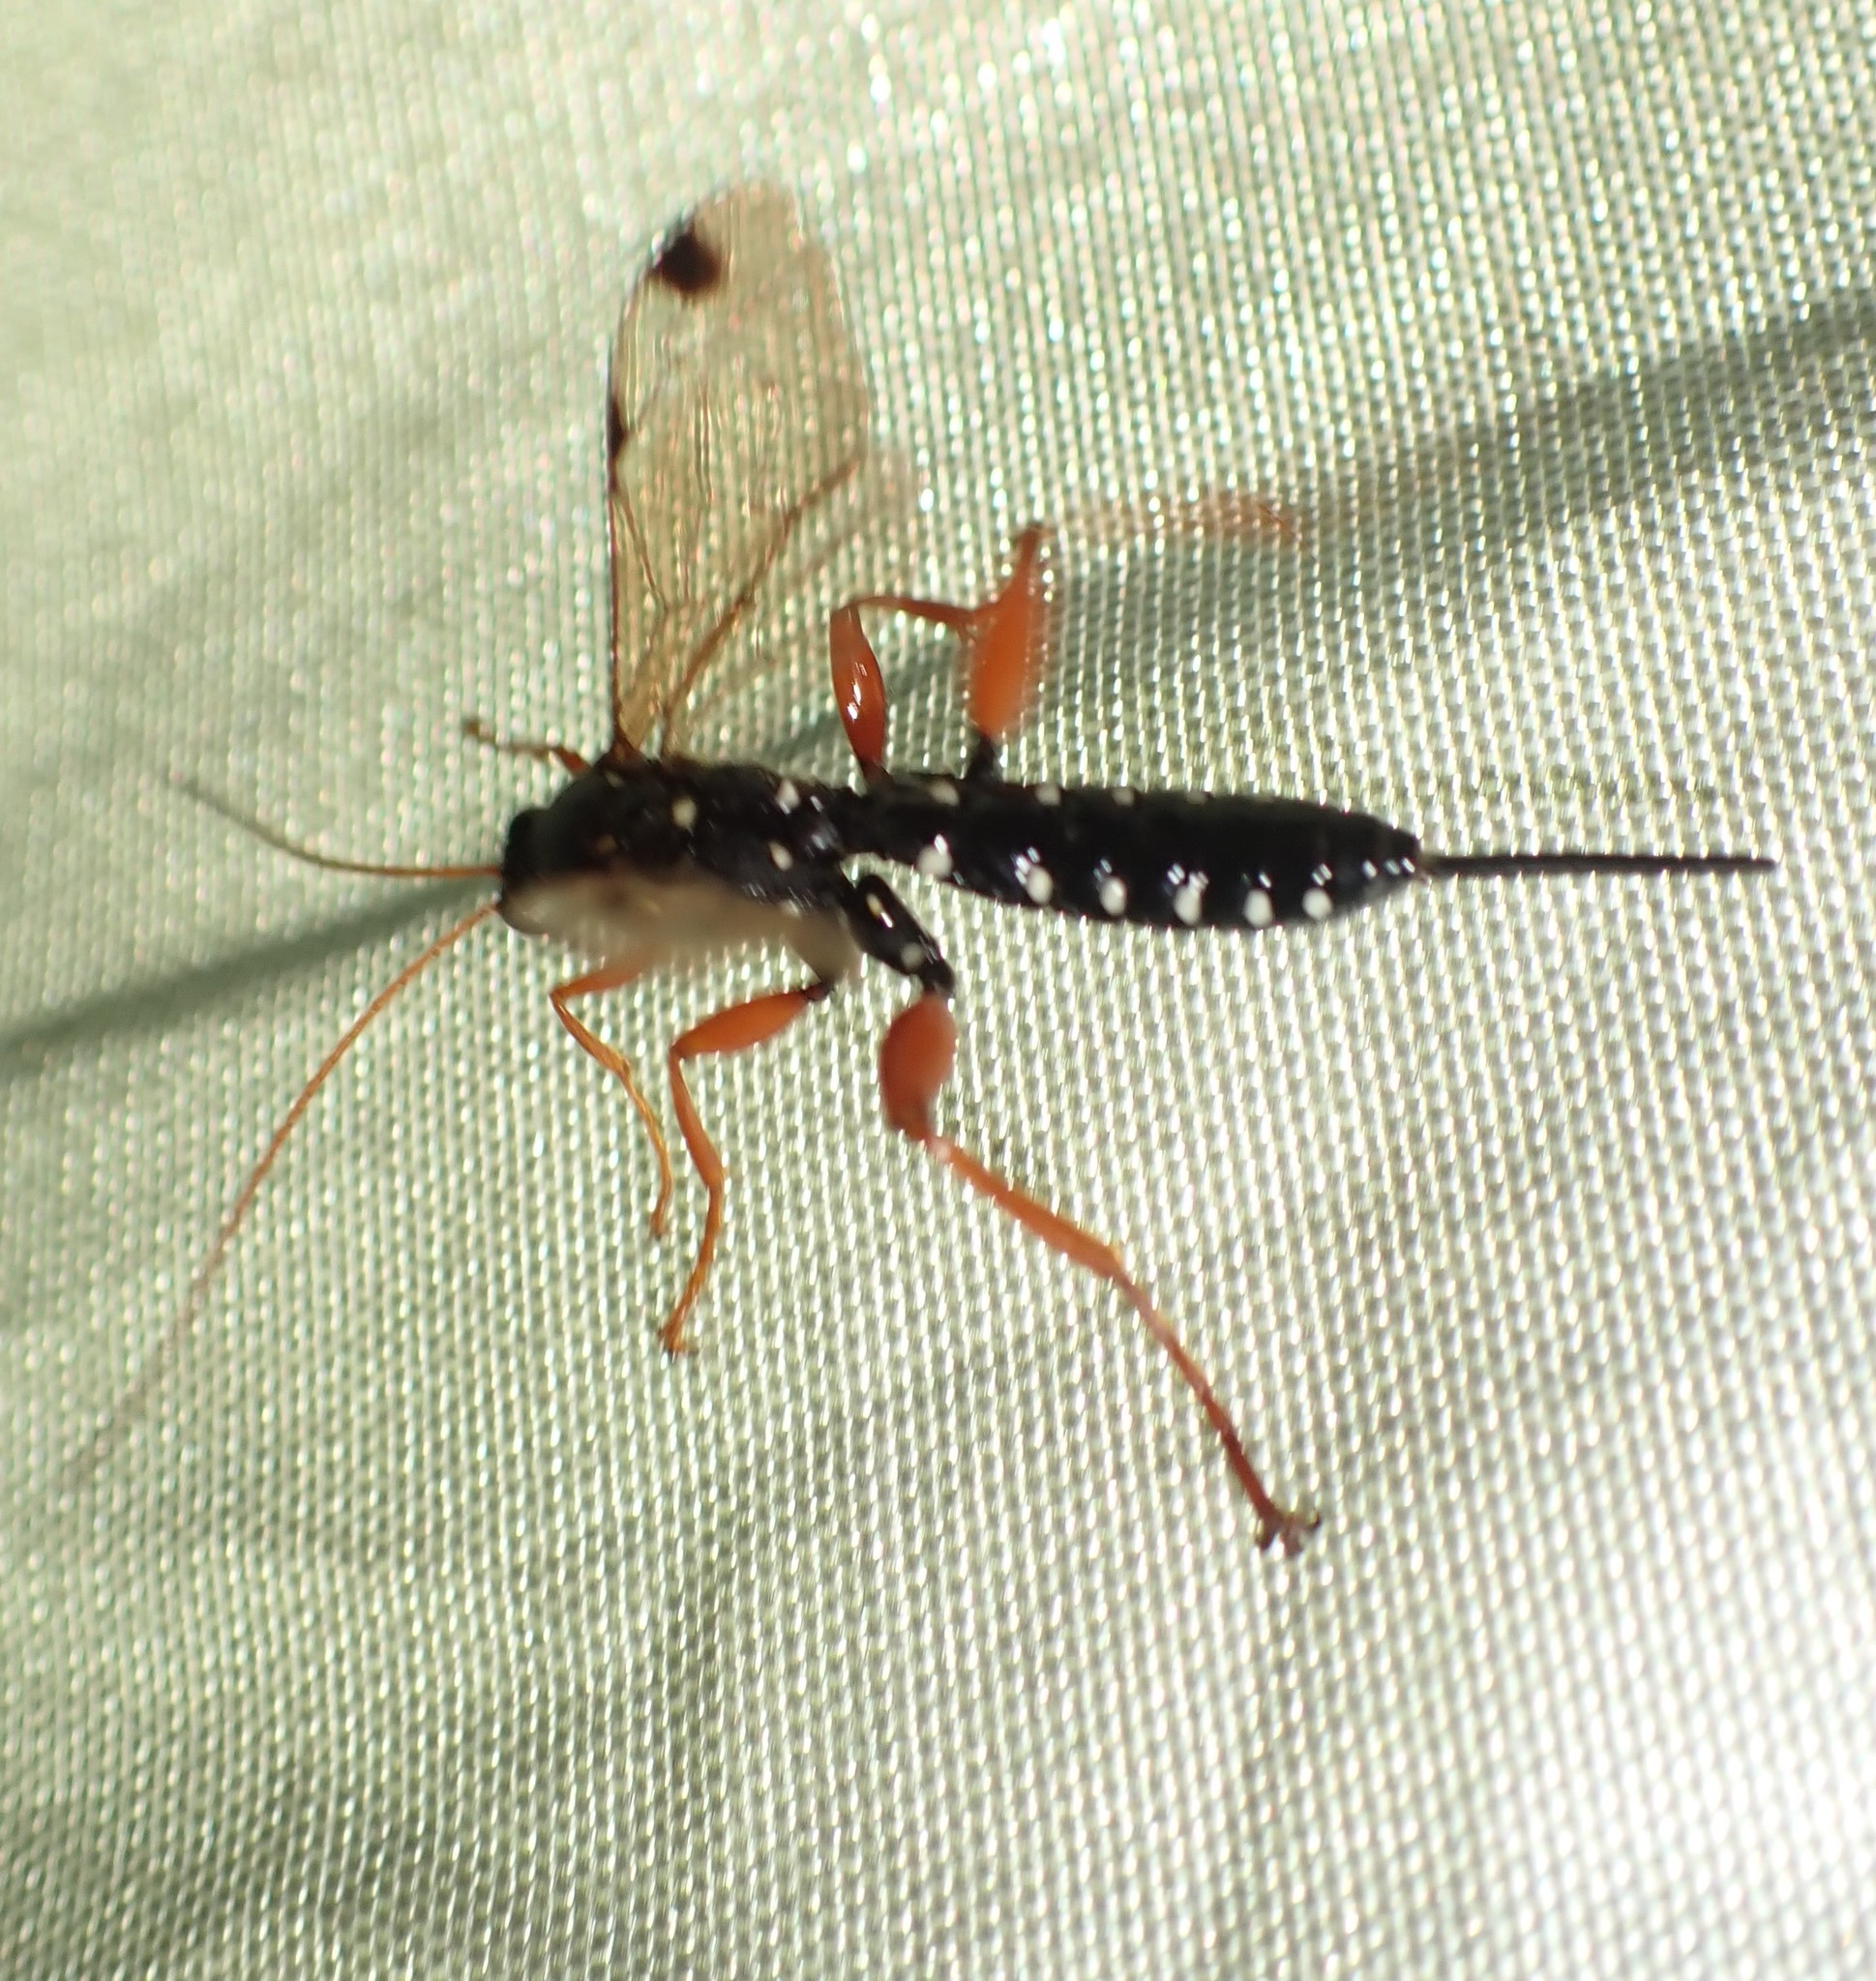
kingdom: Animalia
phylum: Arthropoda
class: Insecta
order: Hymenoptera
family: Ichneumonidae
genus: Echthromorpha
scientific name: Echthromorpha intricatoria
